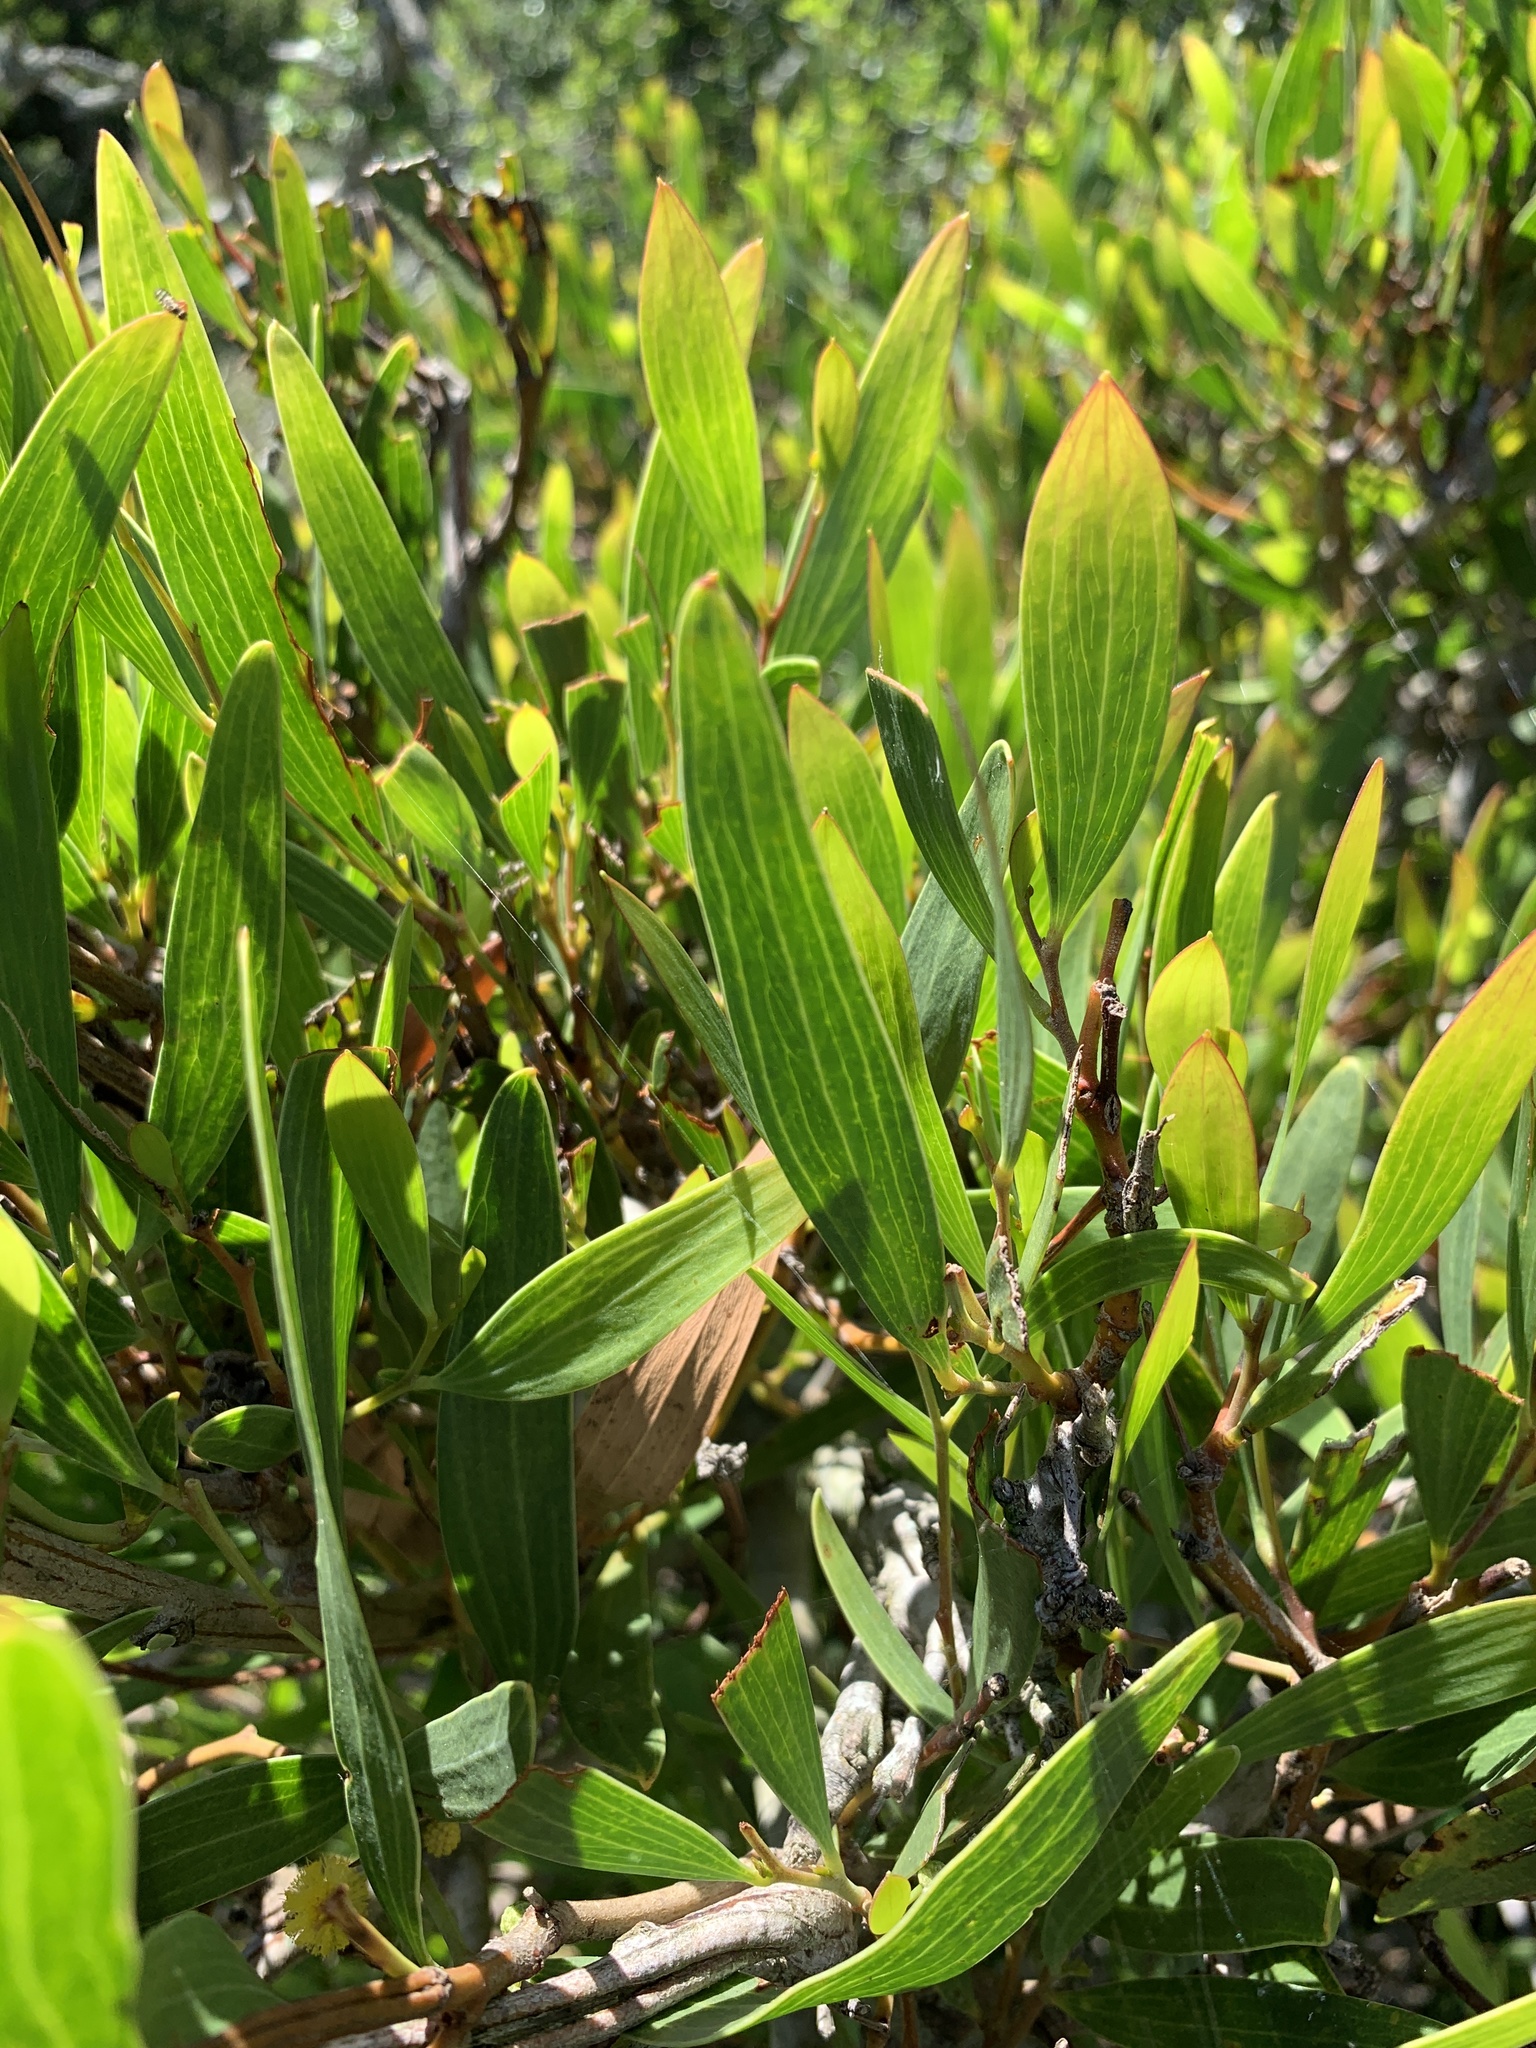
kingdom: Plantae
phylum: Tracheophyta
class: Magnoliopsida
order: Fabales
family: Fabaceae
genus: Acacia
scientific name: Acacia cyclops
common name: Coastal wattle
